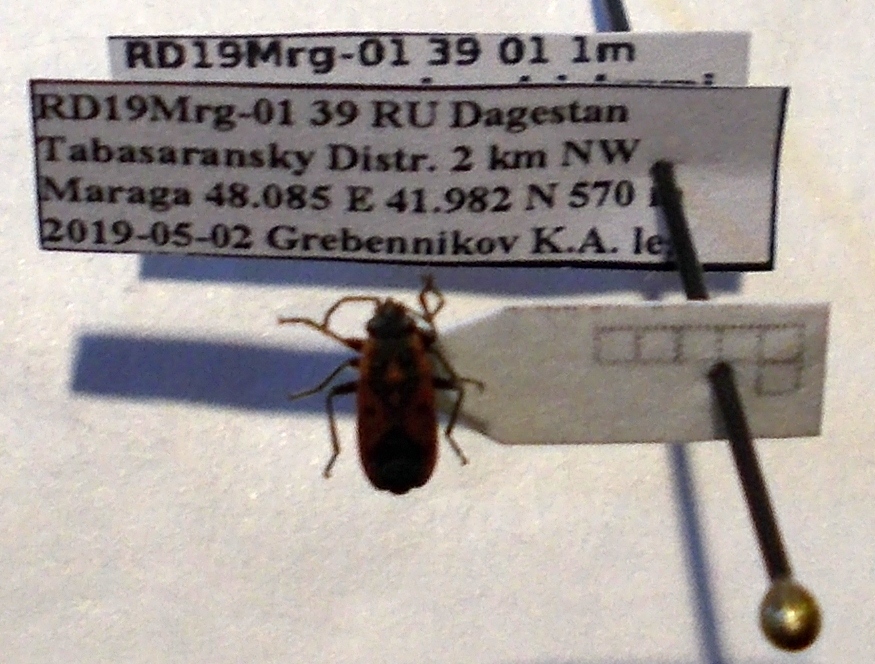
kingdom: Animalia
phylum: Arthropoda
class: Insecta
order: Hemiptera
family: Lygaeidae
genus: Melanocoryphus
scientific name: Melanocoryphus tristrami
